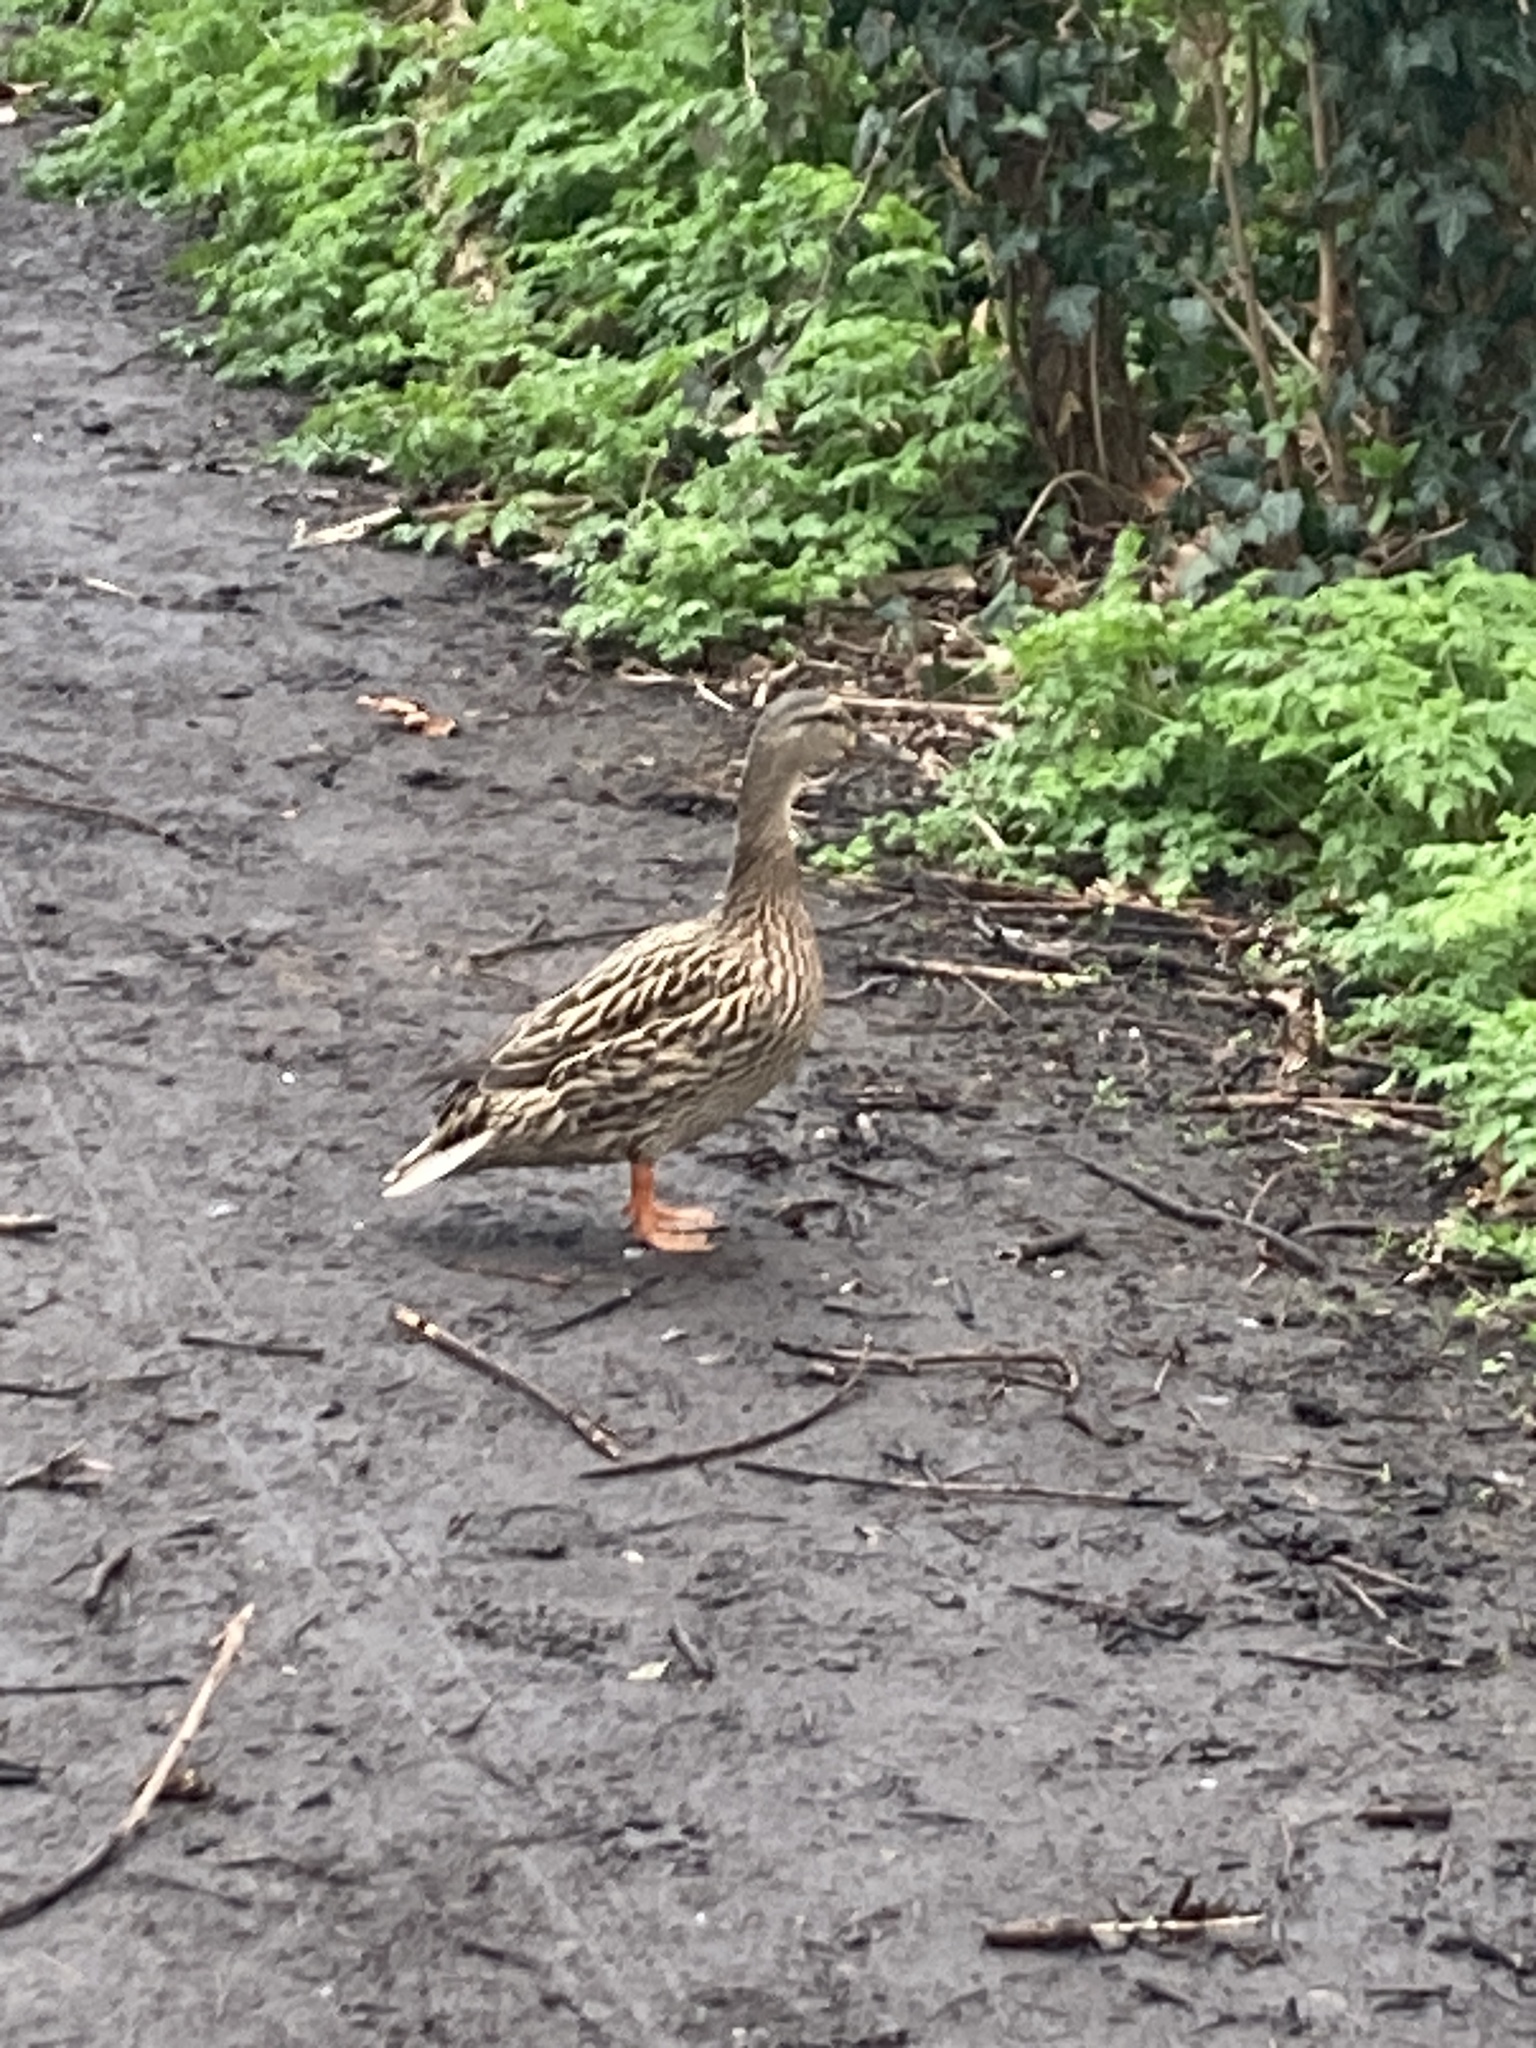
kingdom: Animalia
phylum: Chordata
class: Aves
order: Anseriformes
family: Anatidae
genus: Anas
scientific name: Anas platyrhynchos
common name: Mallard
